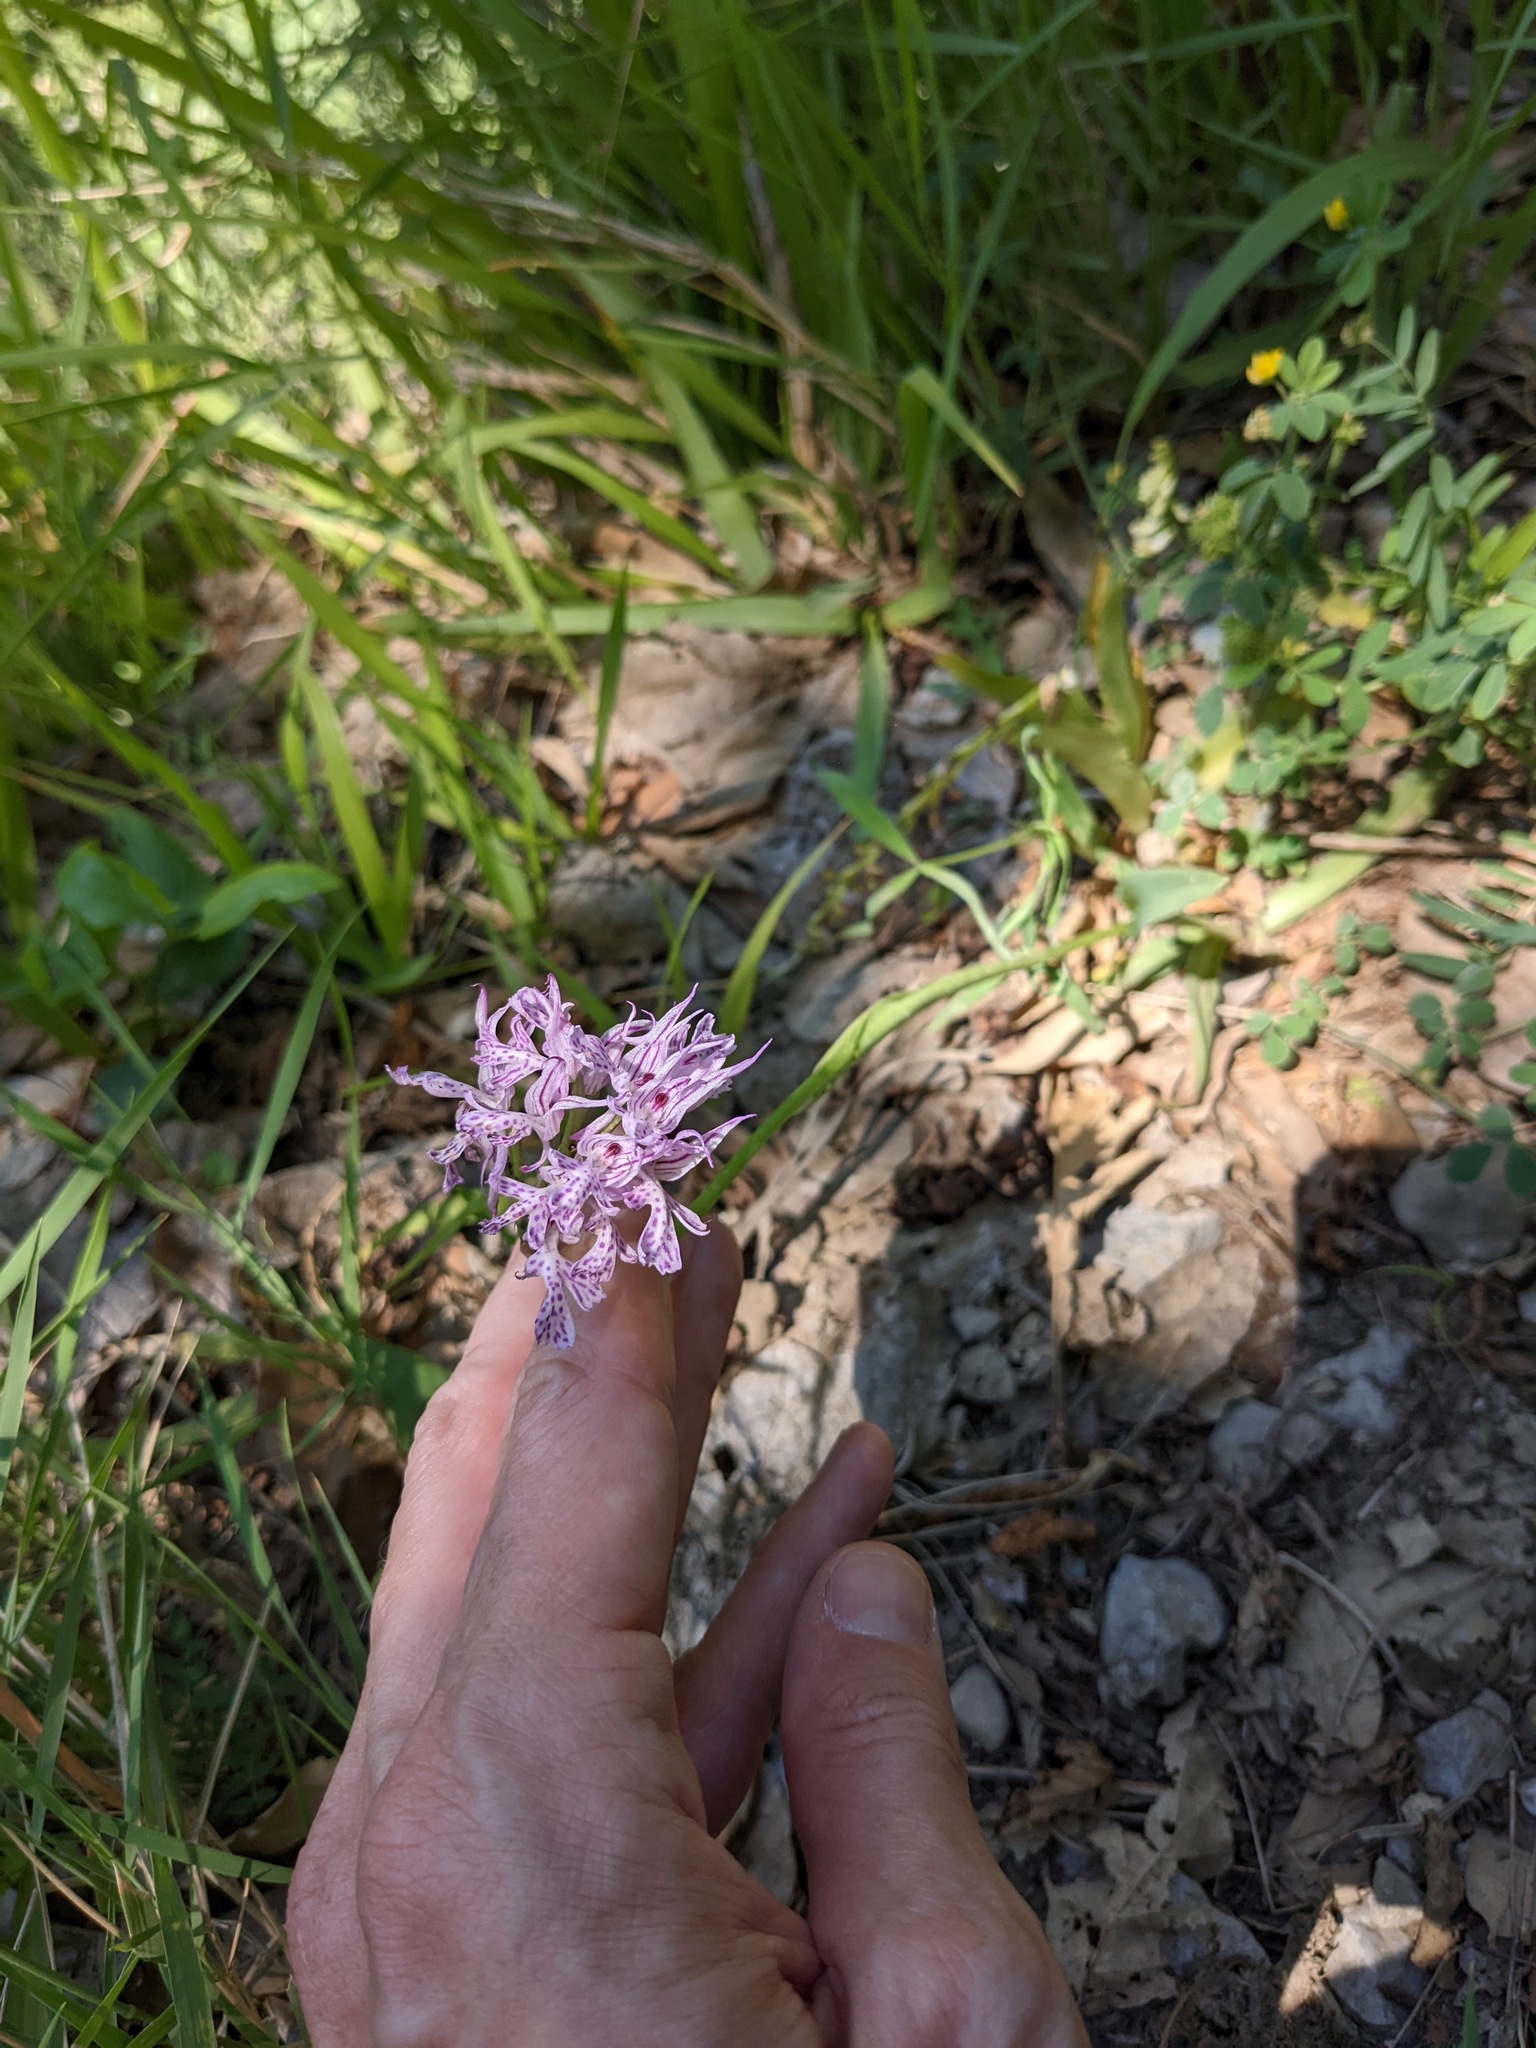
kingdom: Plantae
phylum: Tracheophyta
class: Liliopsida
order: Asparagales
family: Orchidaceae
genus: Neotinea
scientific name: Neotinea tridentata
